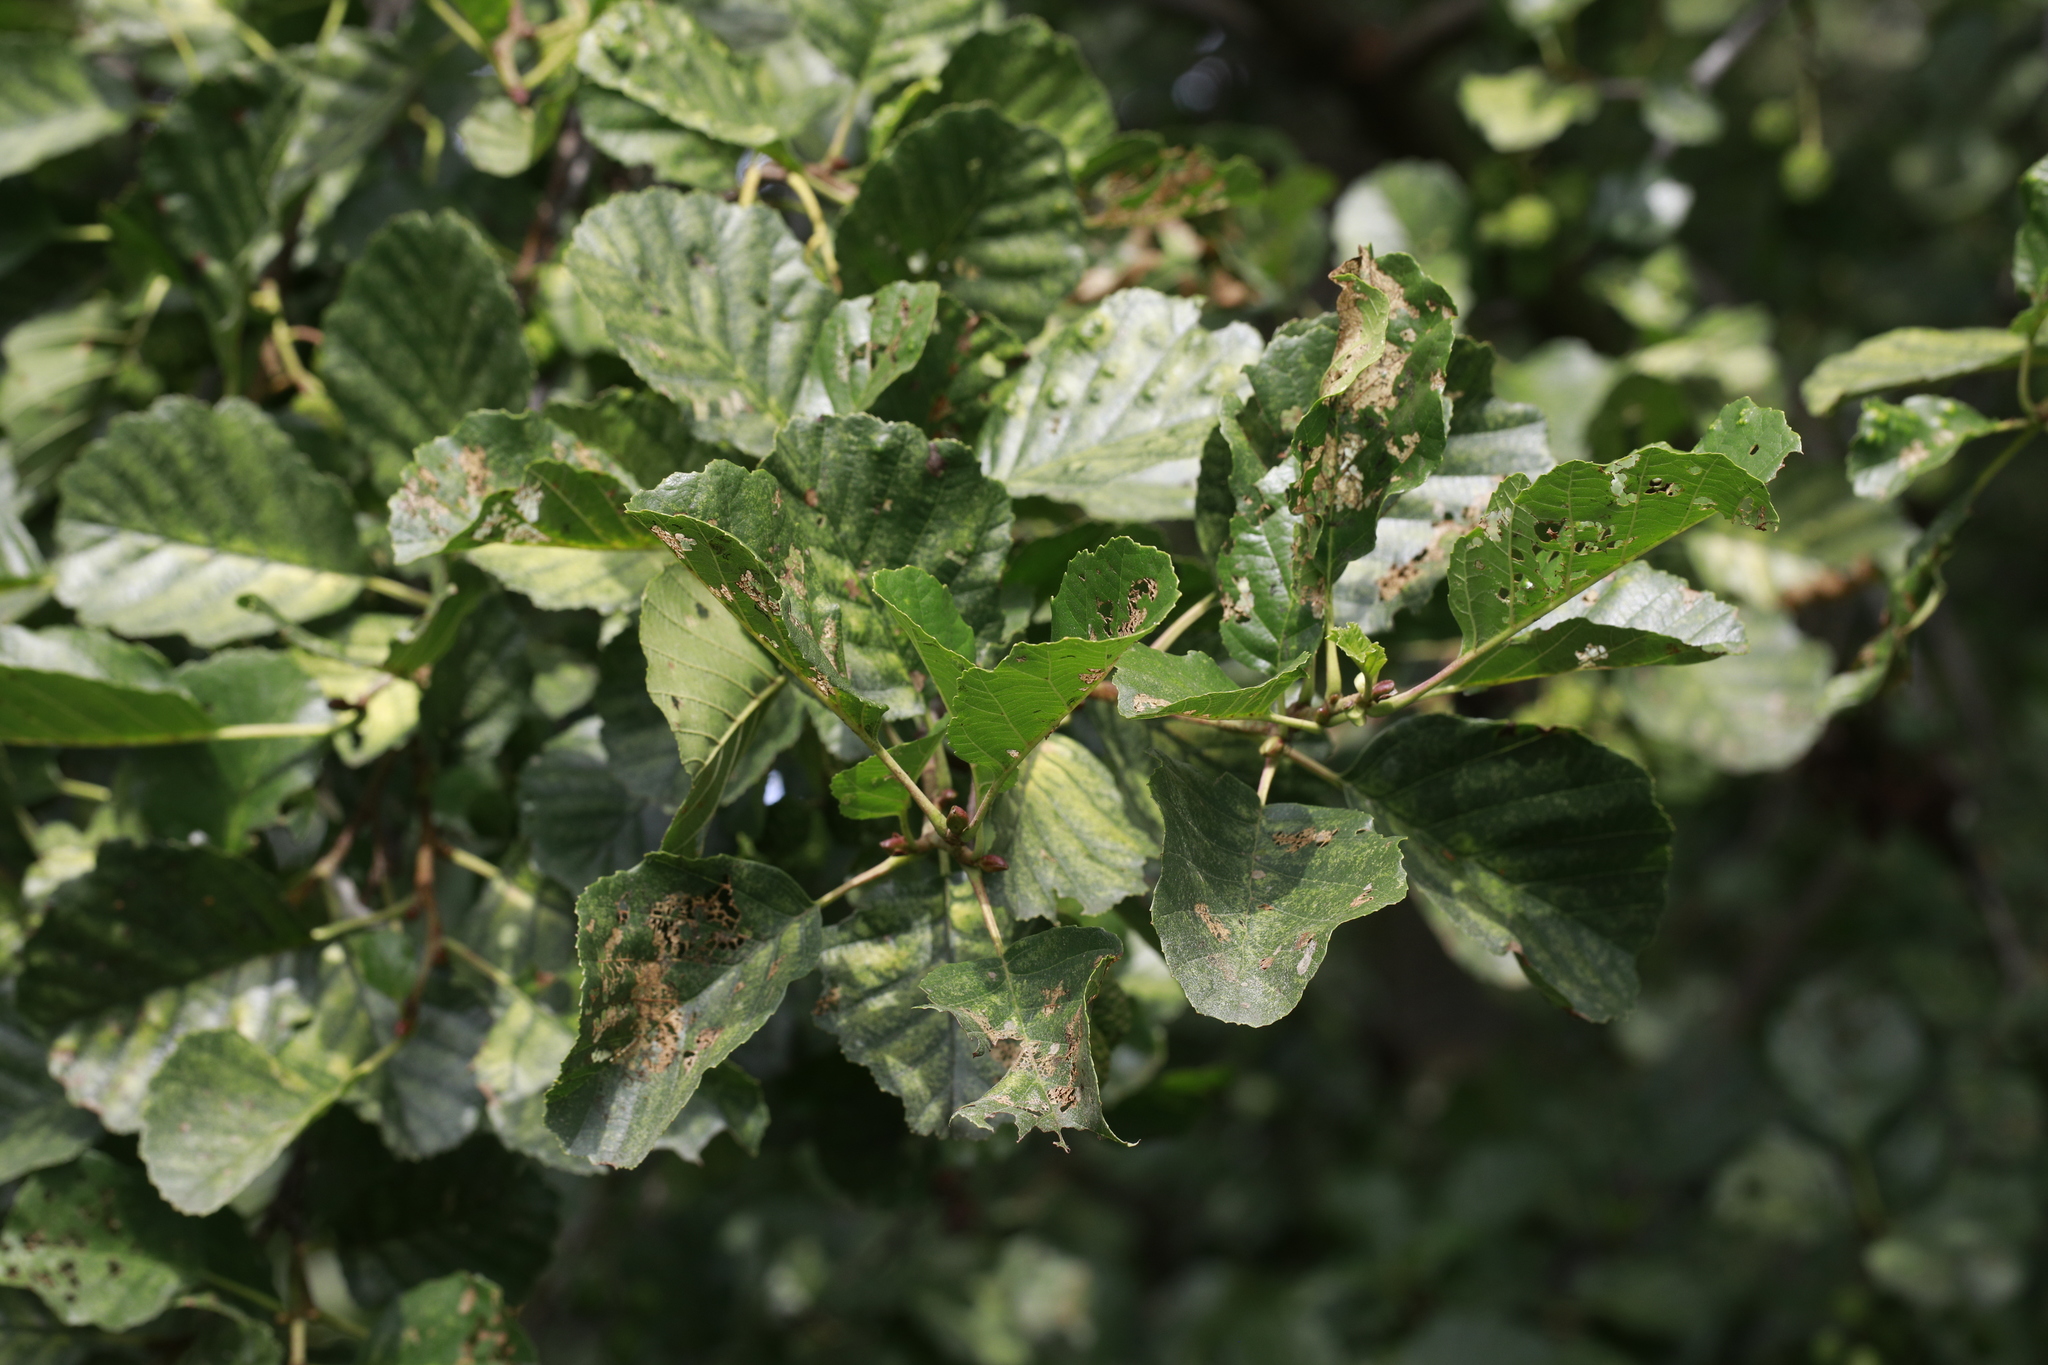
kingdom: Plantae
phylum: Tracheophyta
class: Magnoliopsida
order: Fagales
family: Betulaceae
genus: Alnus
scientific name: Alnus glutinosa
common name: Black alder
